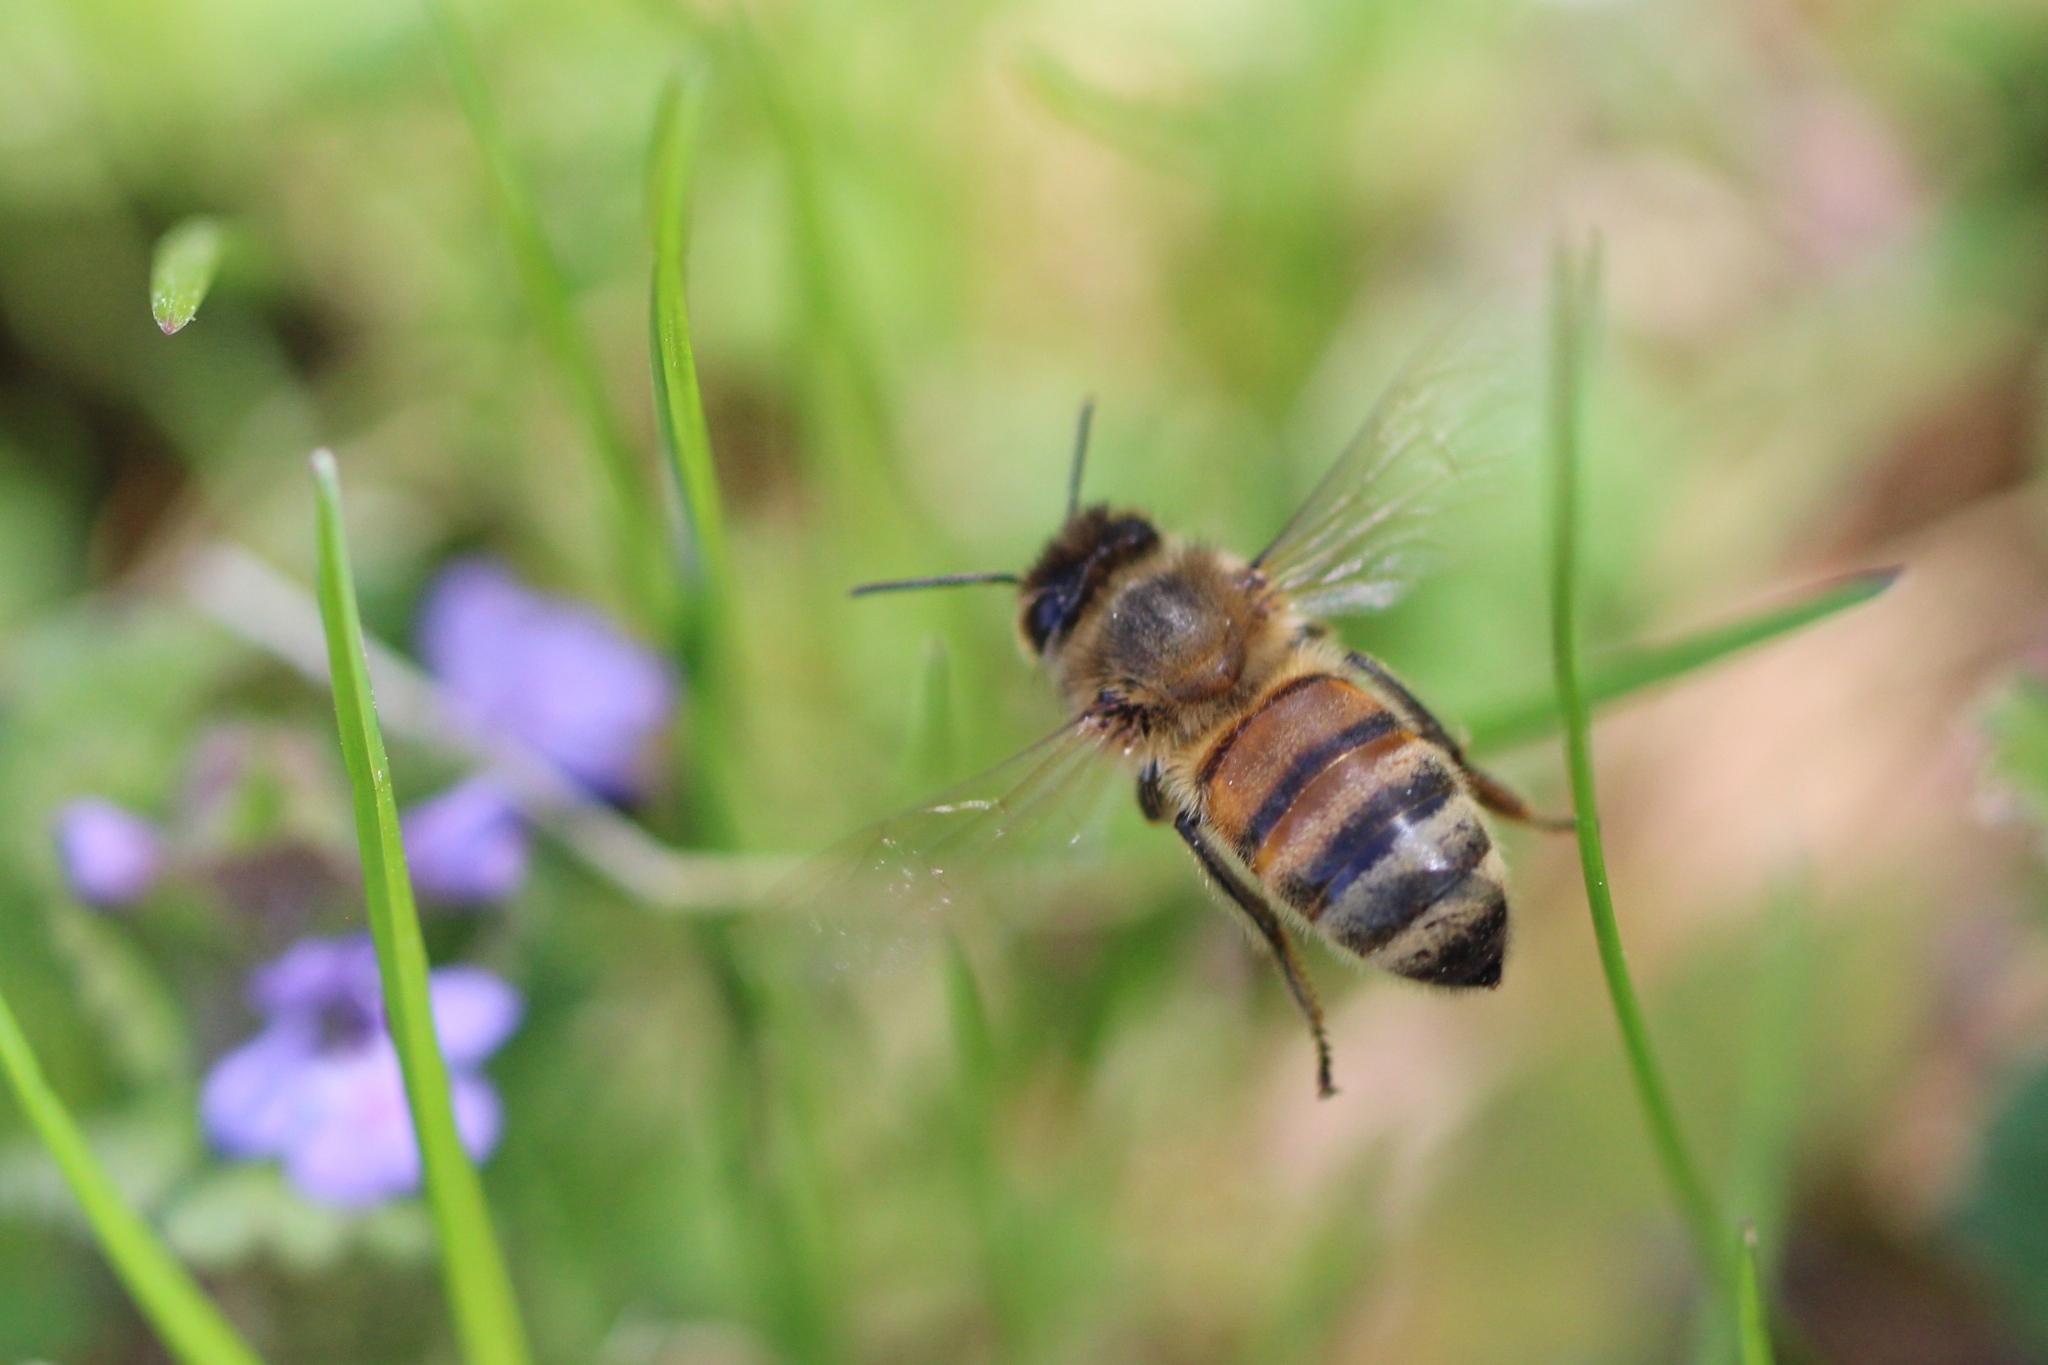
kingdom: Animalia
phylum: Arthropoda
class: Insecta
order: Hymenoptera
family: Apidae
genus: Apis
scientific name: Apis mellifera
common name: Honey bee
